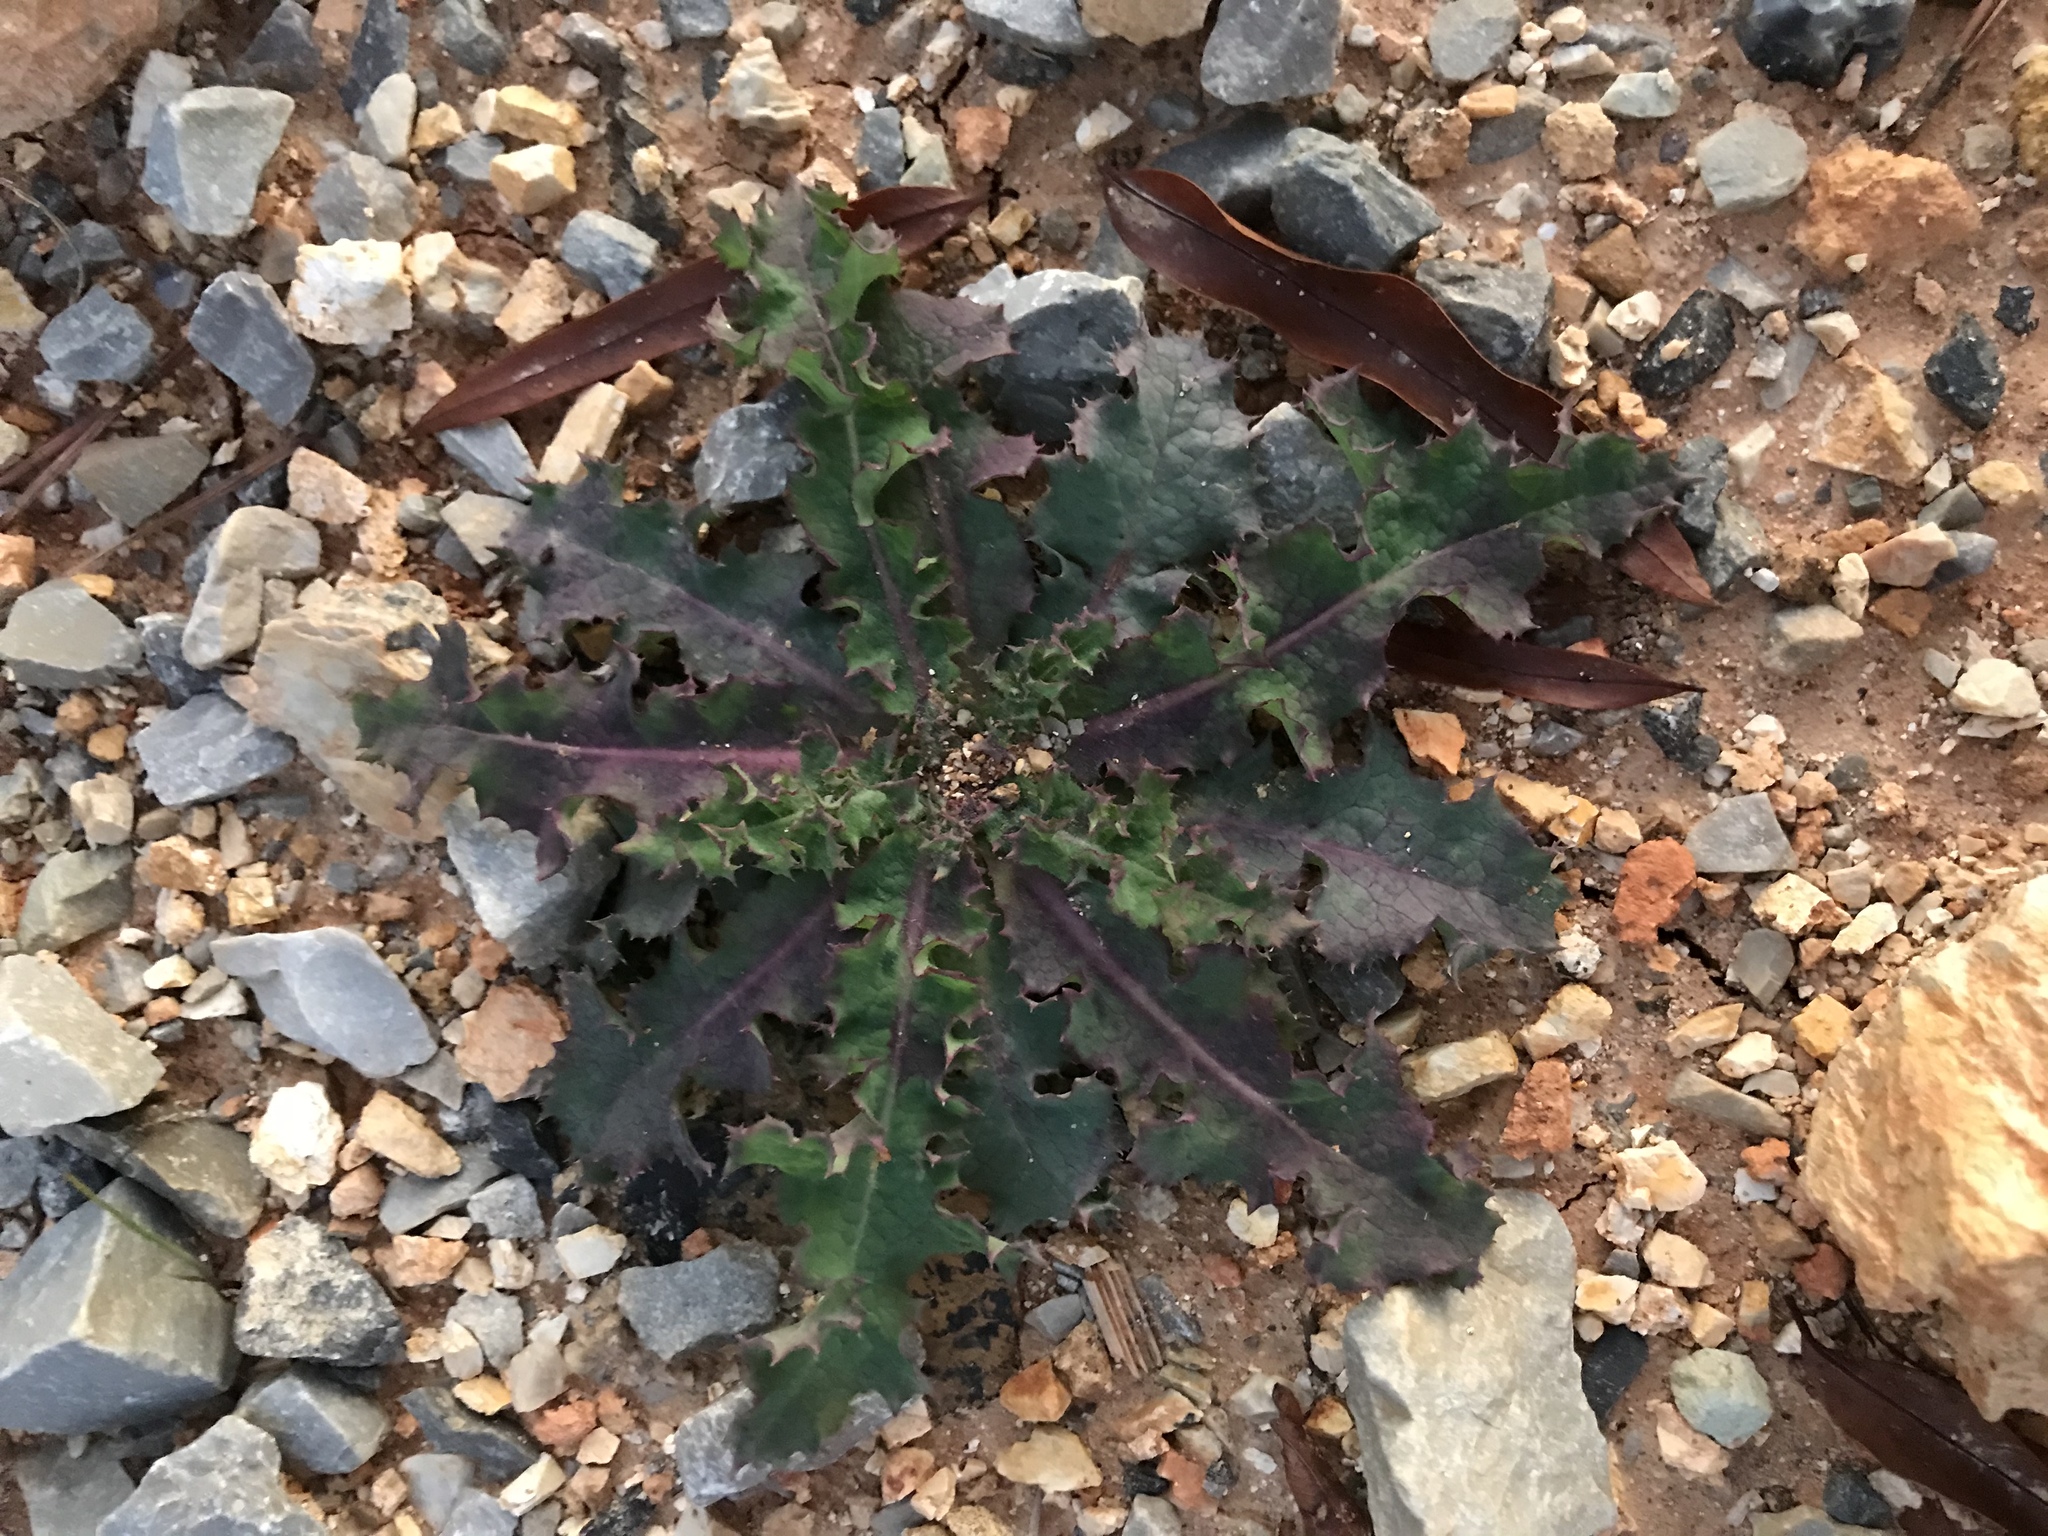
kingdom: Plantae
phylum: Tracheophyta
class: Magnoliopsida
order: Asterales
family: Asteraceae
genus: Sonchus
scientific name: Sonchus asper
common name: Prickly sow-thistle
